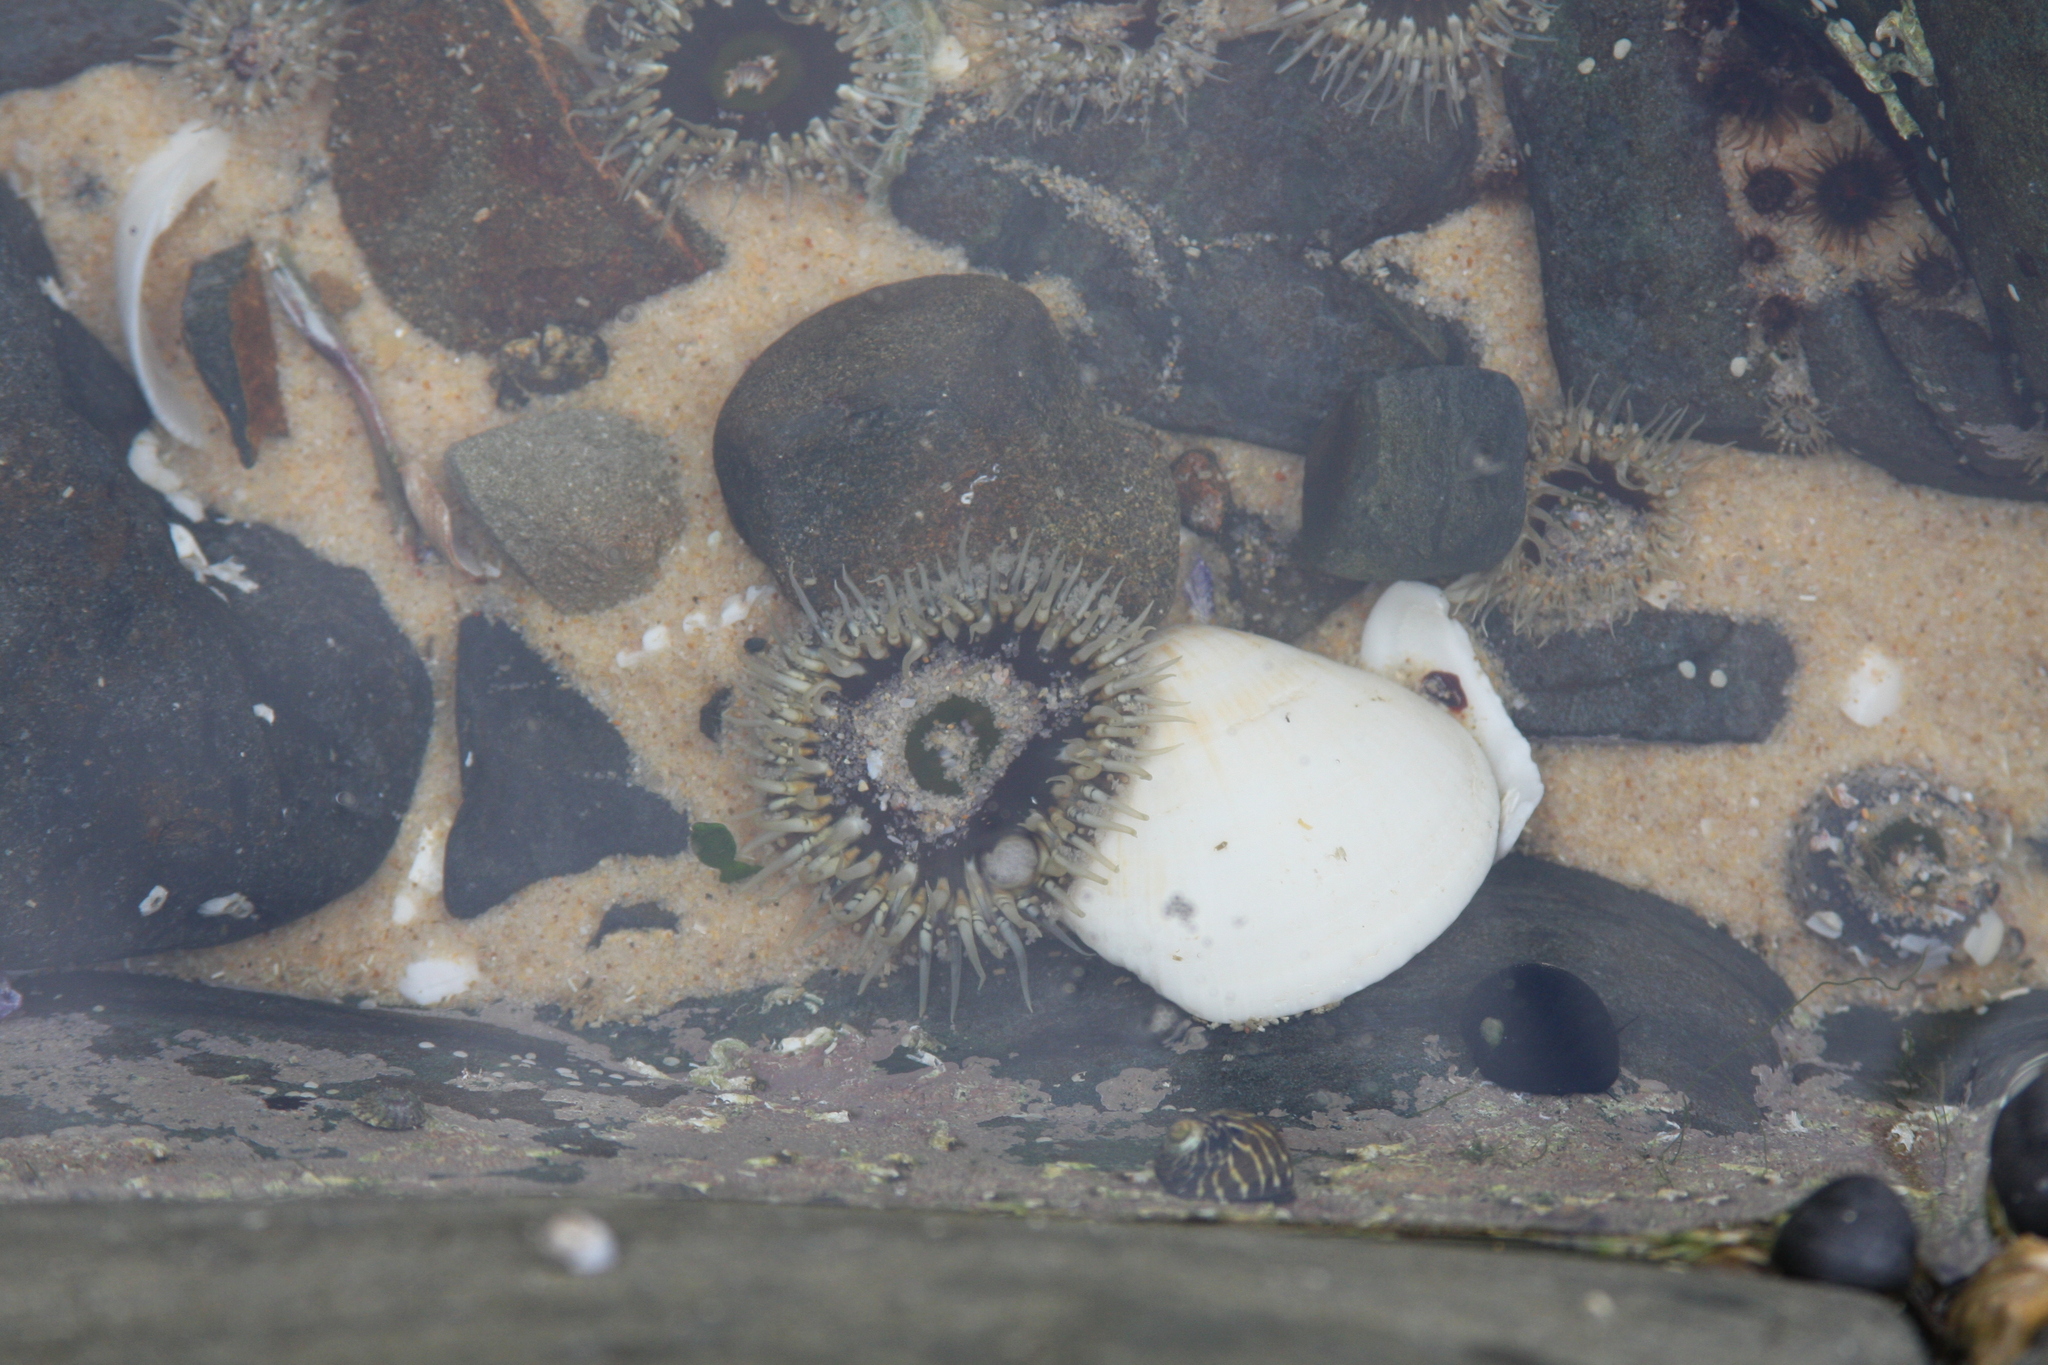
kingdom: Animalia
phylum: Cnidaria
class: Anthozoa
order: Actiniaria
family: Actiniidae
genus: Oulactis
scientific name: Oulactis muscosa
